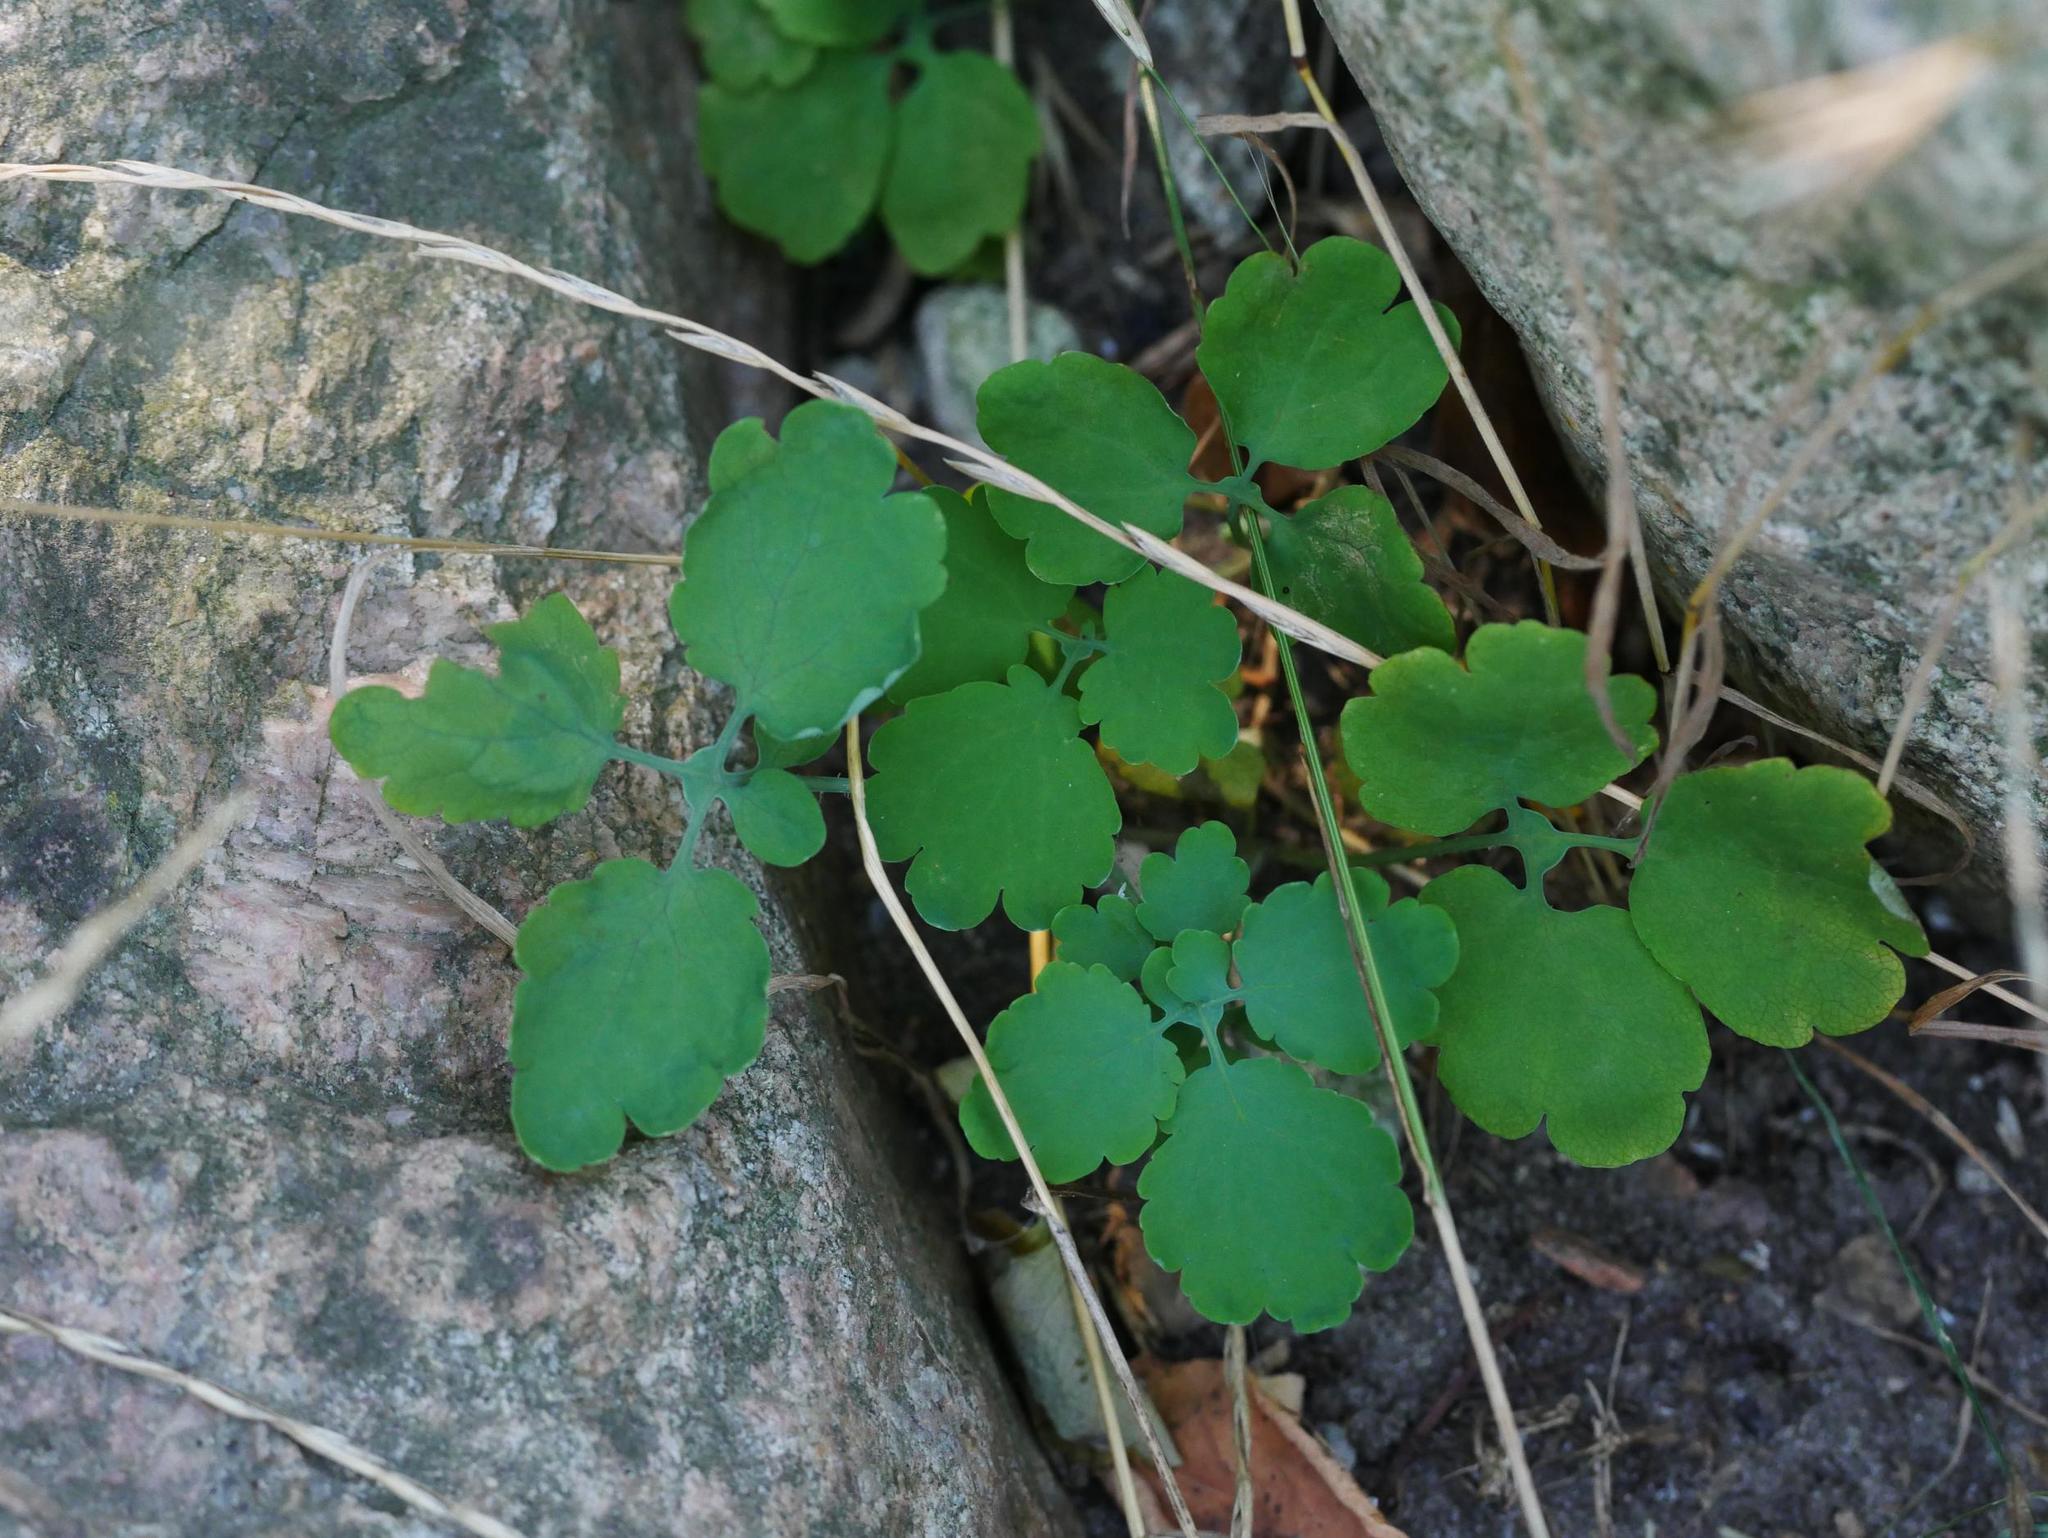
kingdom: Plantae
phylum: Tracheophyta
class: Magnoliopsida
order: Ranunculales
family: Papaveraceae
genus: Chelidonium
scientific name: Chelidonium majus
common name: Greater celandine
